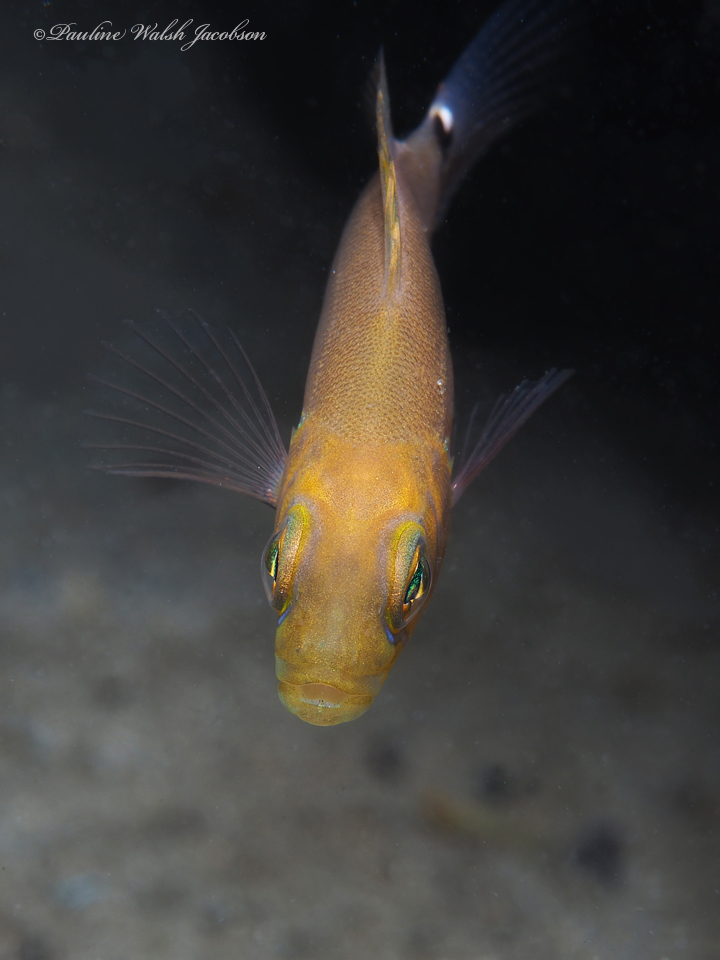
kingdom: Animalia
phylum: Chordata
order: Perciformes
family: Serranidae
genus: Hypoplectrus
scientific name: Hypoplectrus unicolor
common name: Butter hamlet
